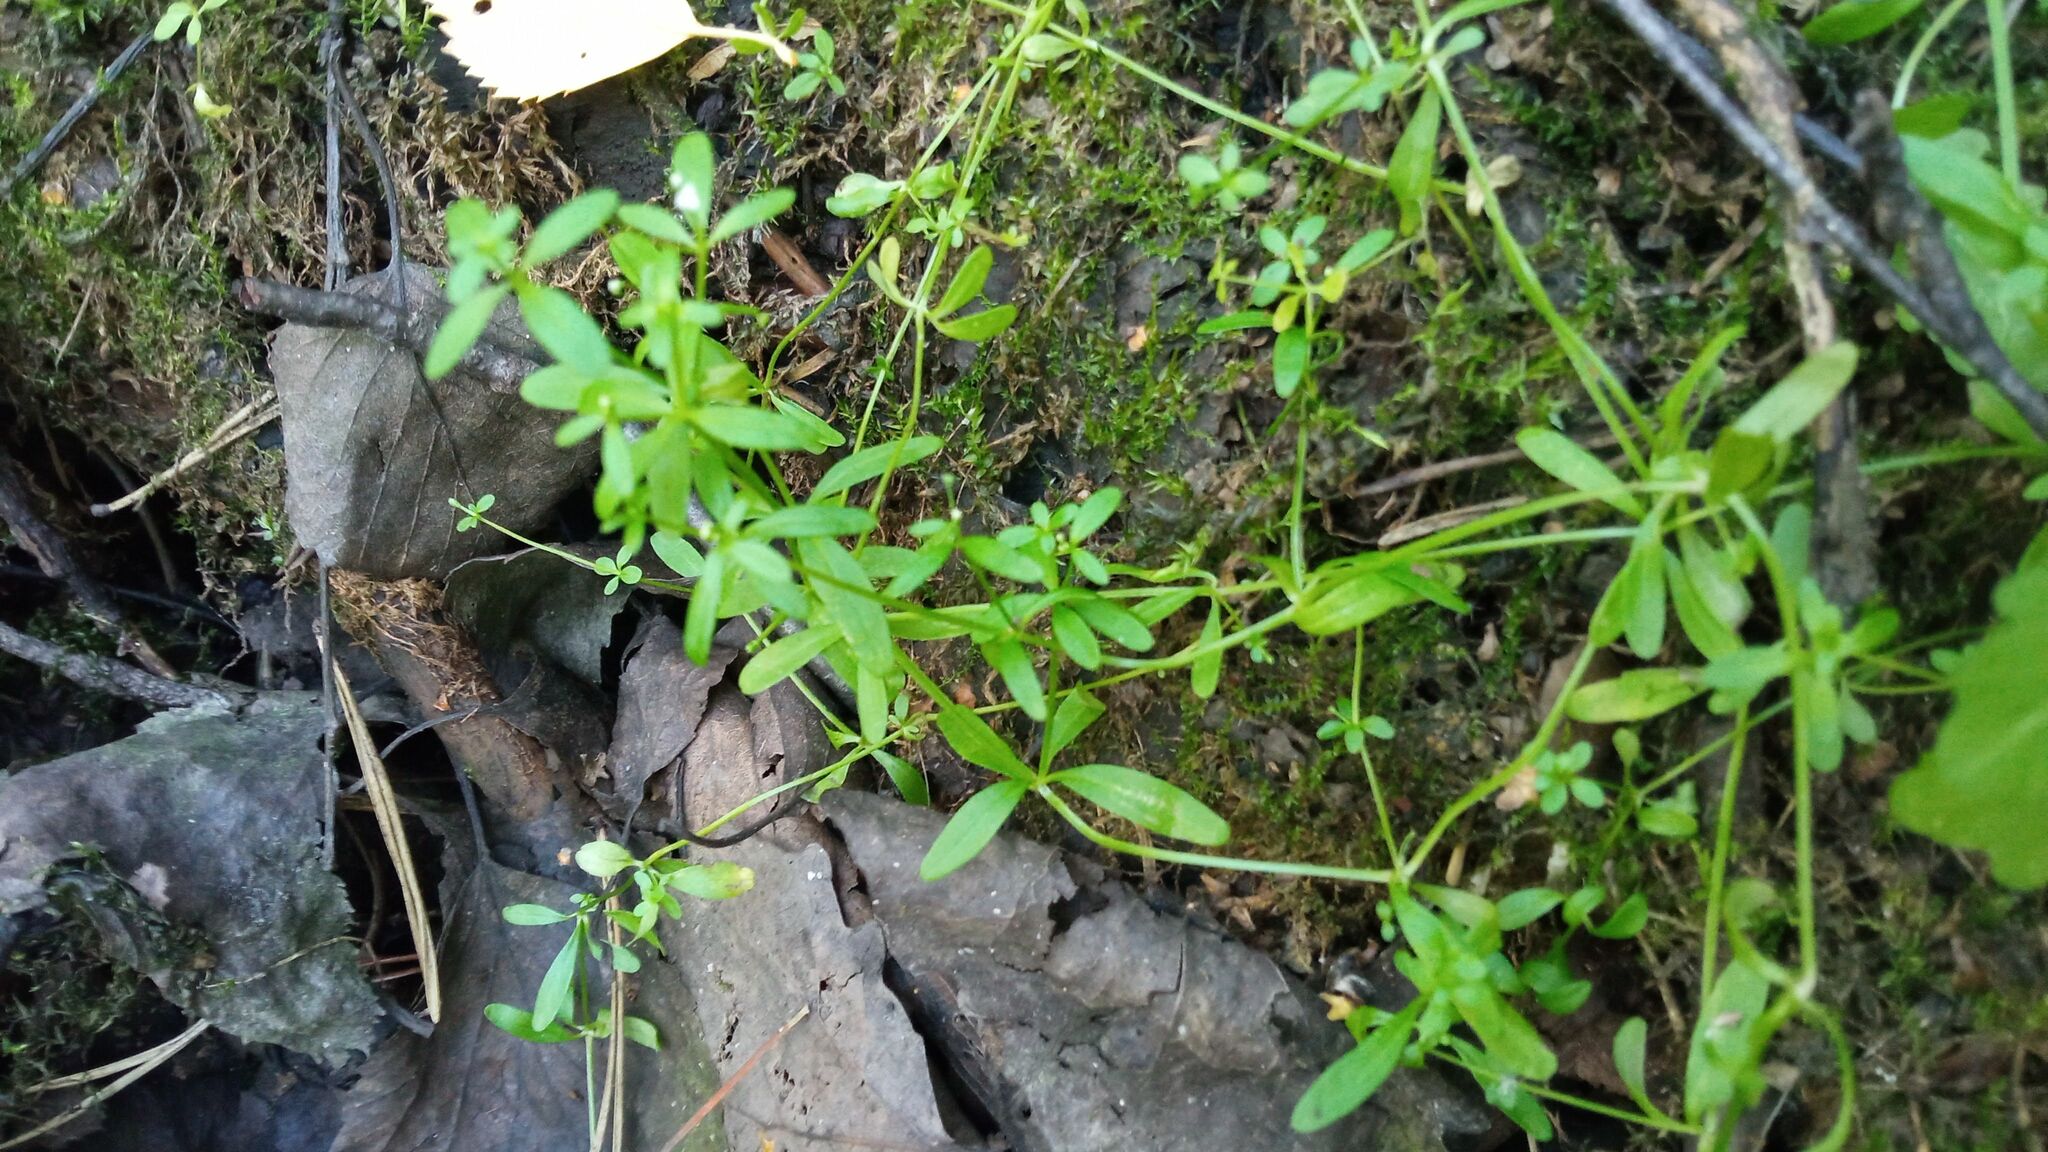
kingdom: Plantae
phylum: Tracheophyta
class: Magnoliopsida
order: Gentianales
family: Rubiaceae
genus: Galium
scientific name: Galium palustre
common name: Common marsh-bedstraw
